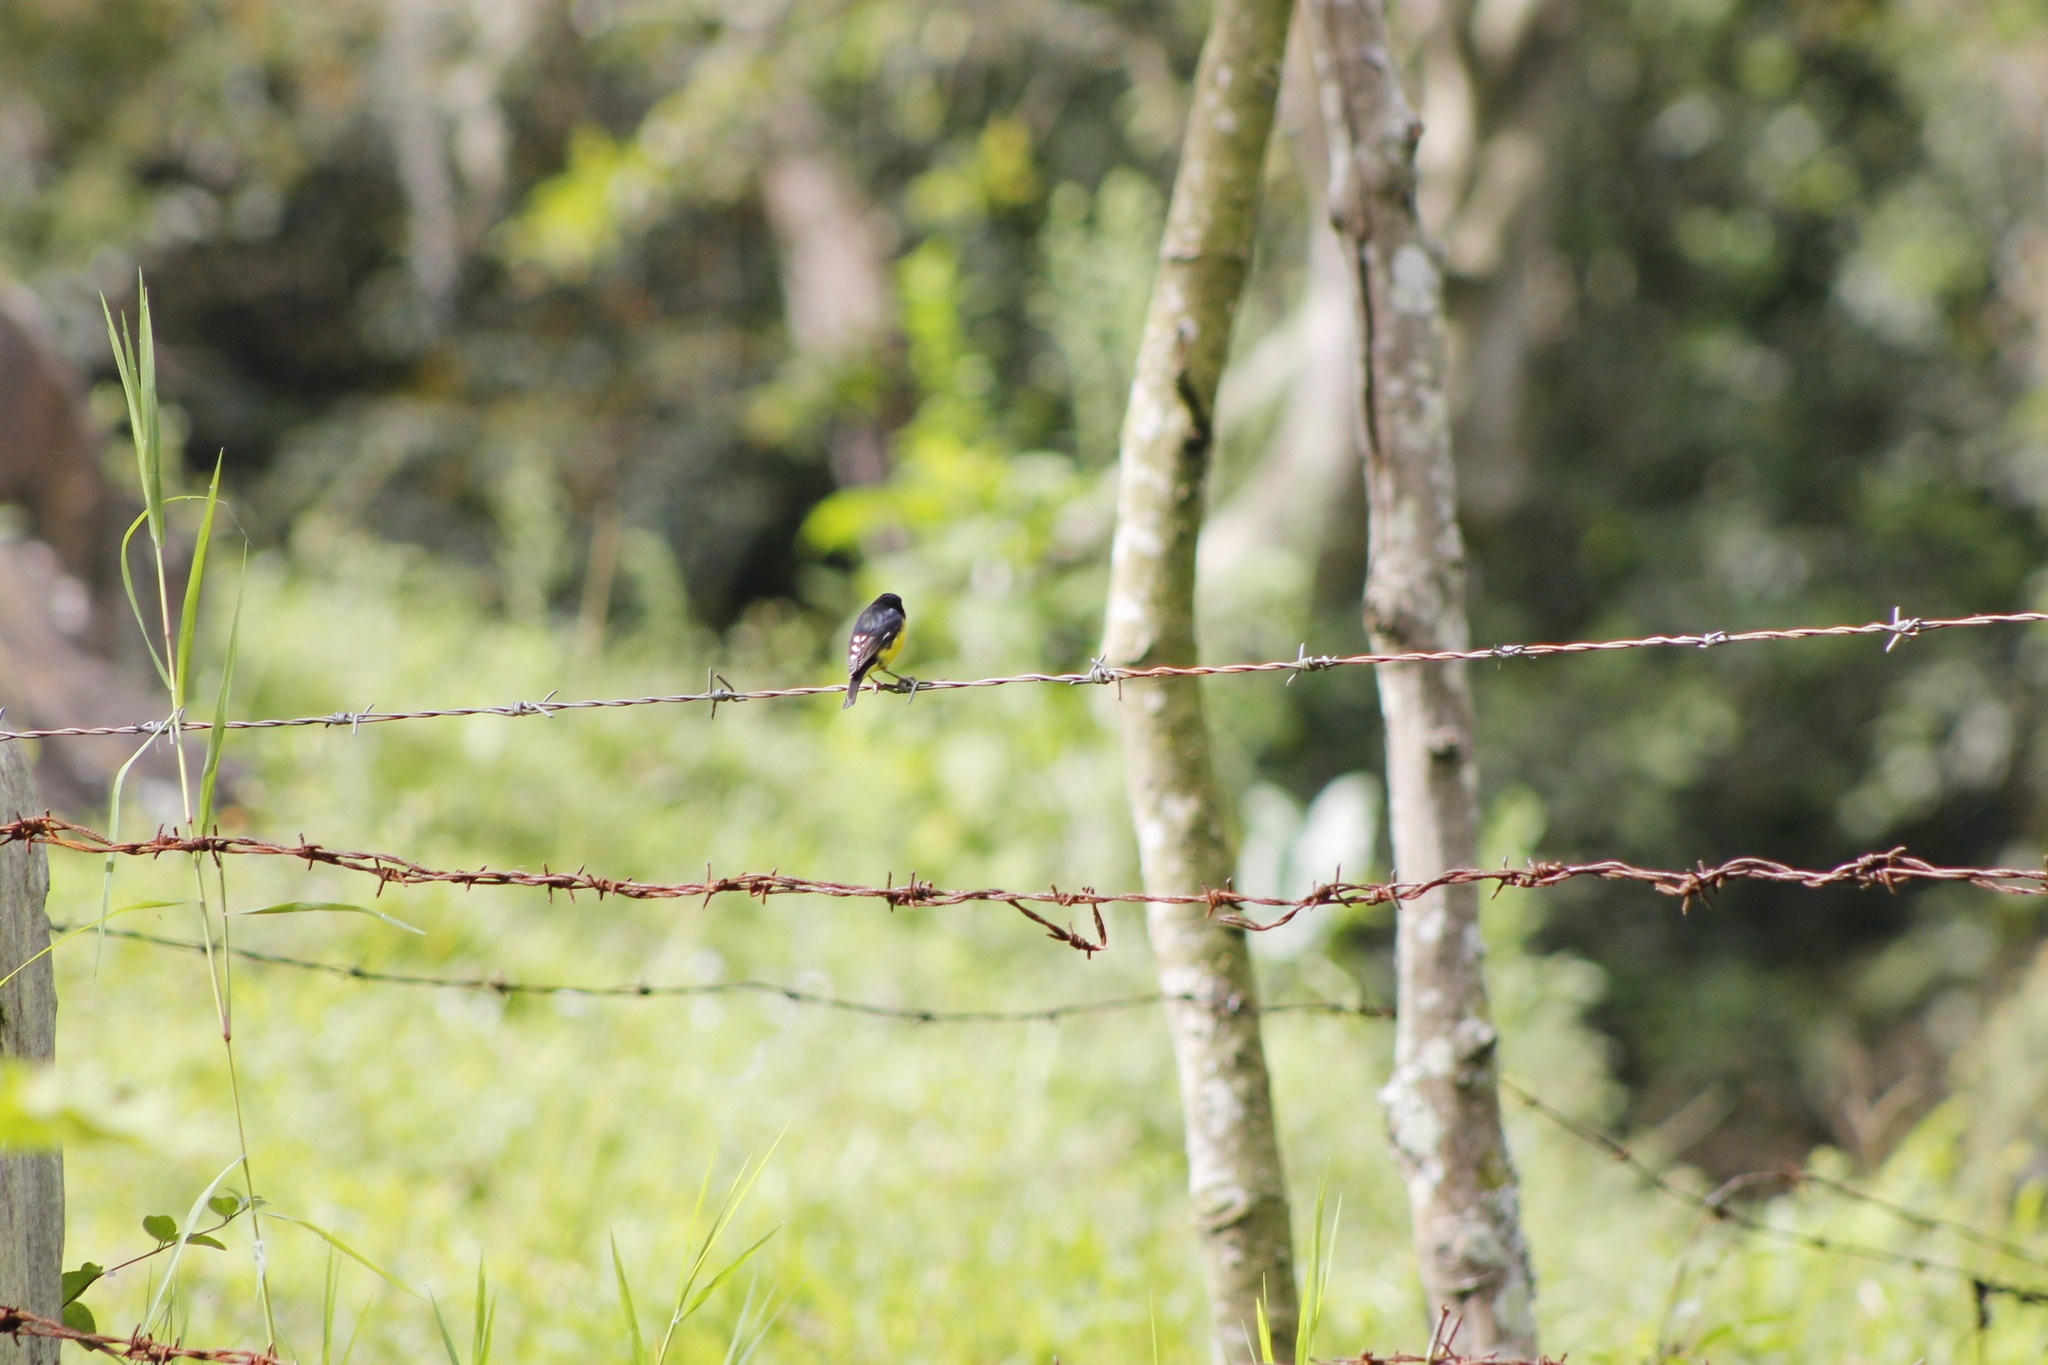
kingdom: Animalia
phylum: Chordata
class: Aves
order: Passeriformes
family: Fringillidae
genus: Spinus
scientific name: Spinus psaltria
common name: Lesser goldfinch
